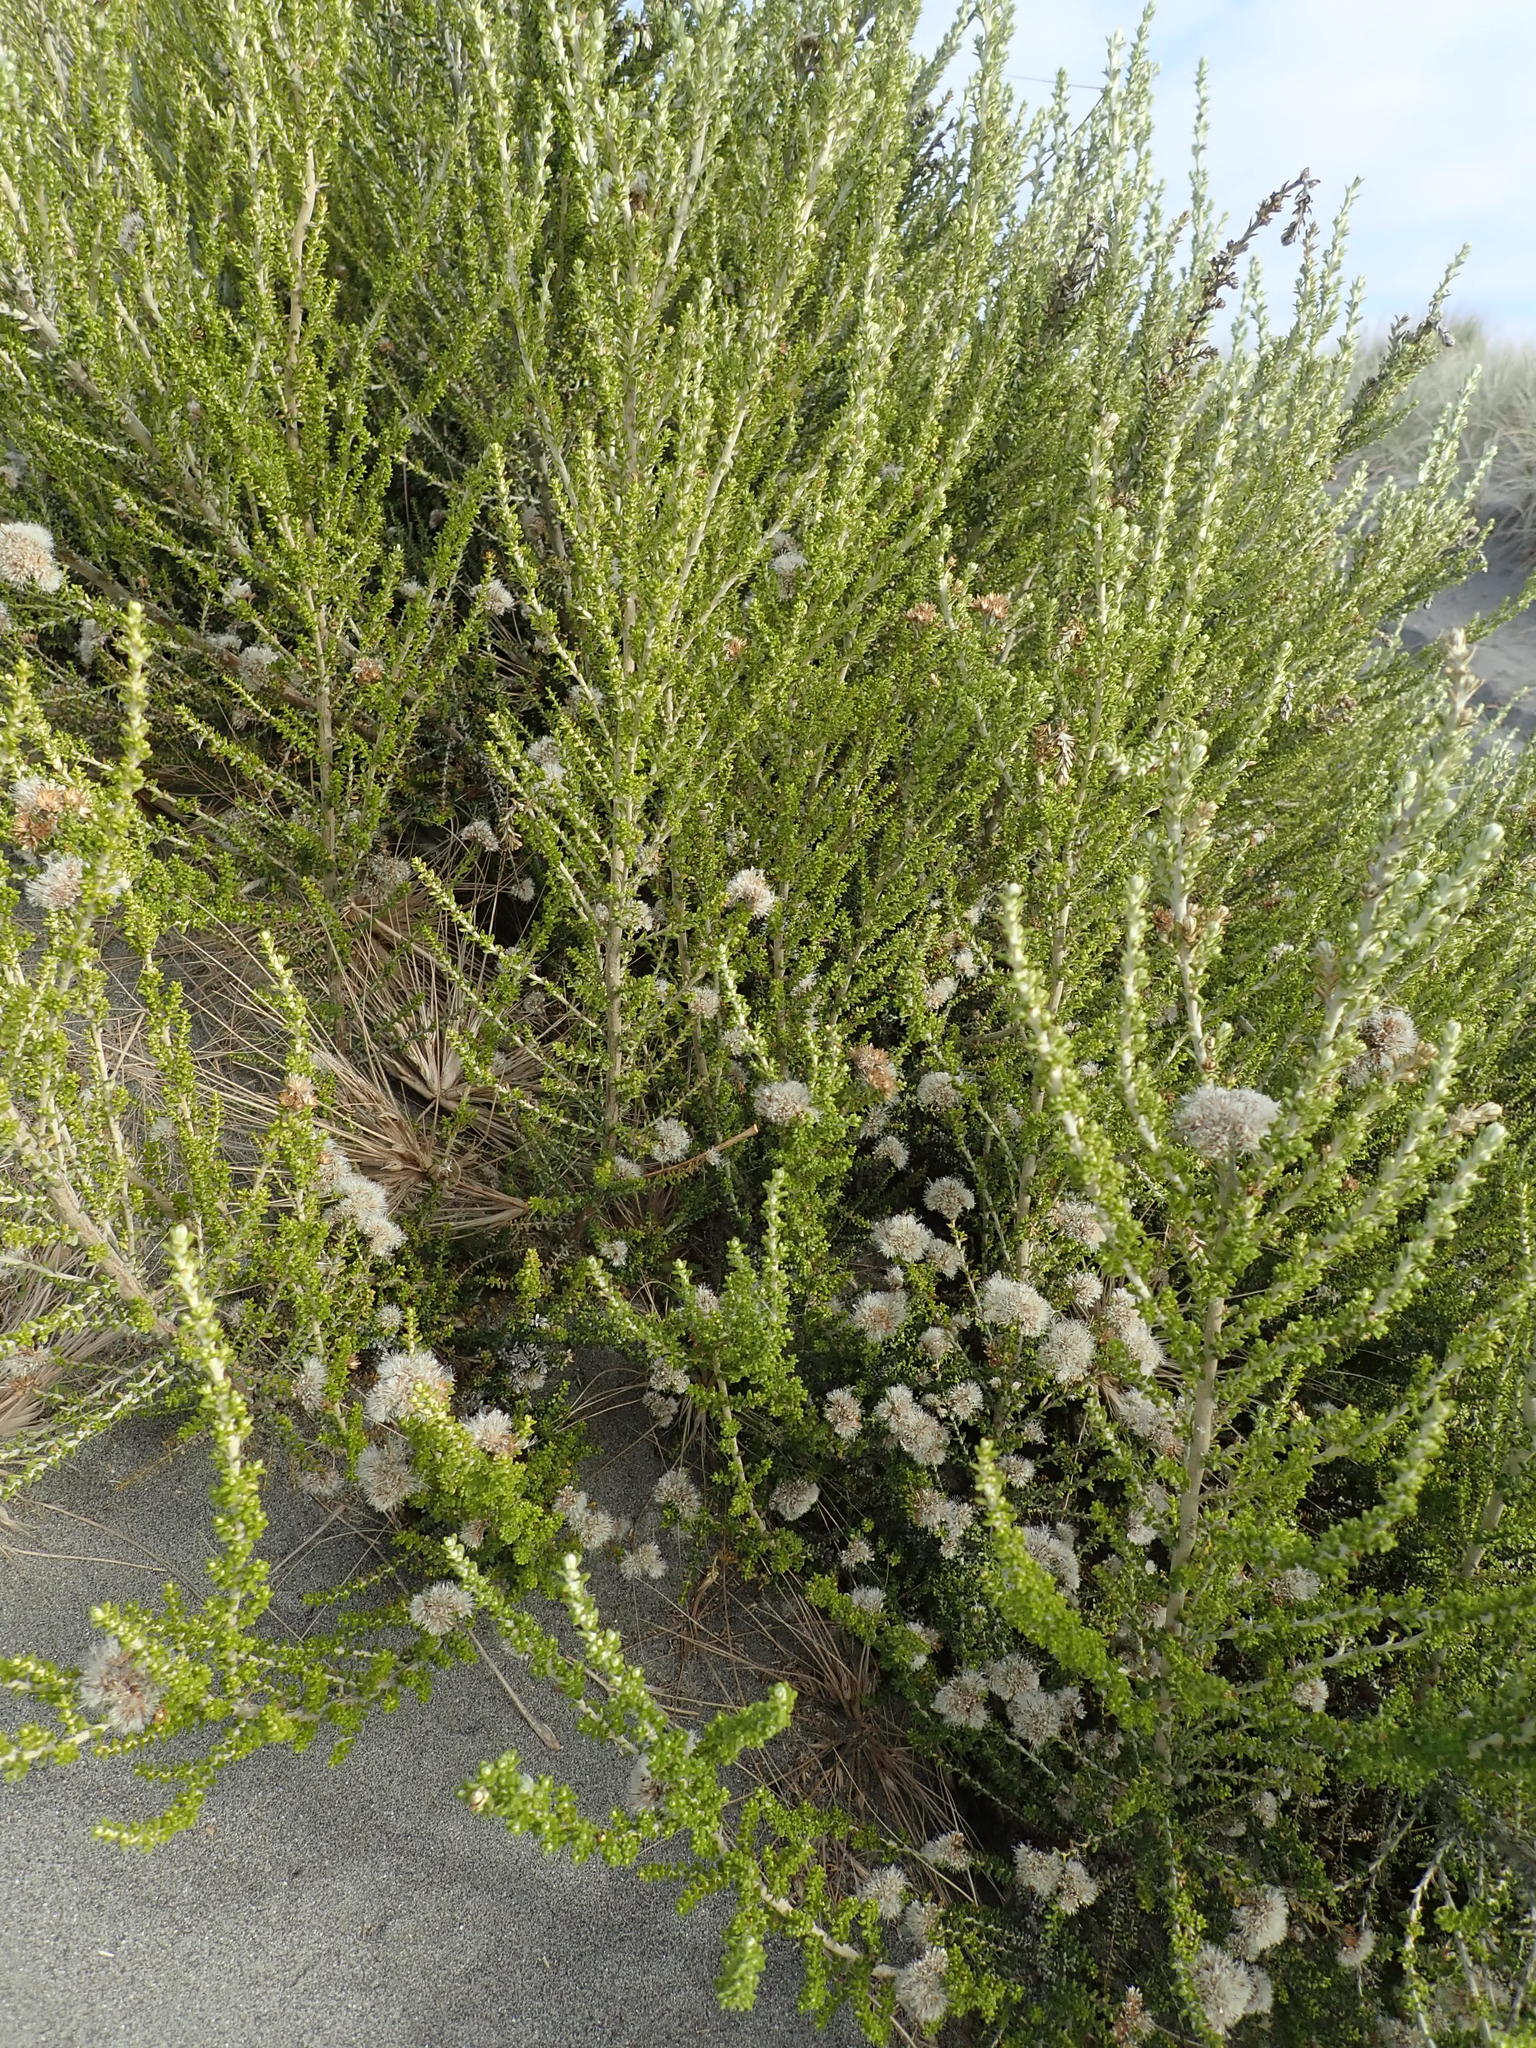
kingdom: Plantae
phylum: Tracheophyta
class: Magnoliopsida
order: Asterales
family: Asteraceae
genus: Ozothamnus
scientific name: Ozothamnus leptophyllus
